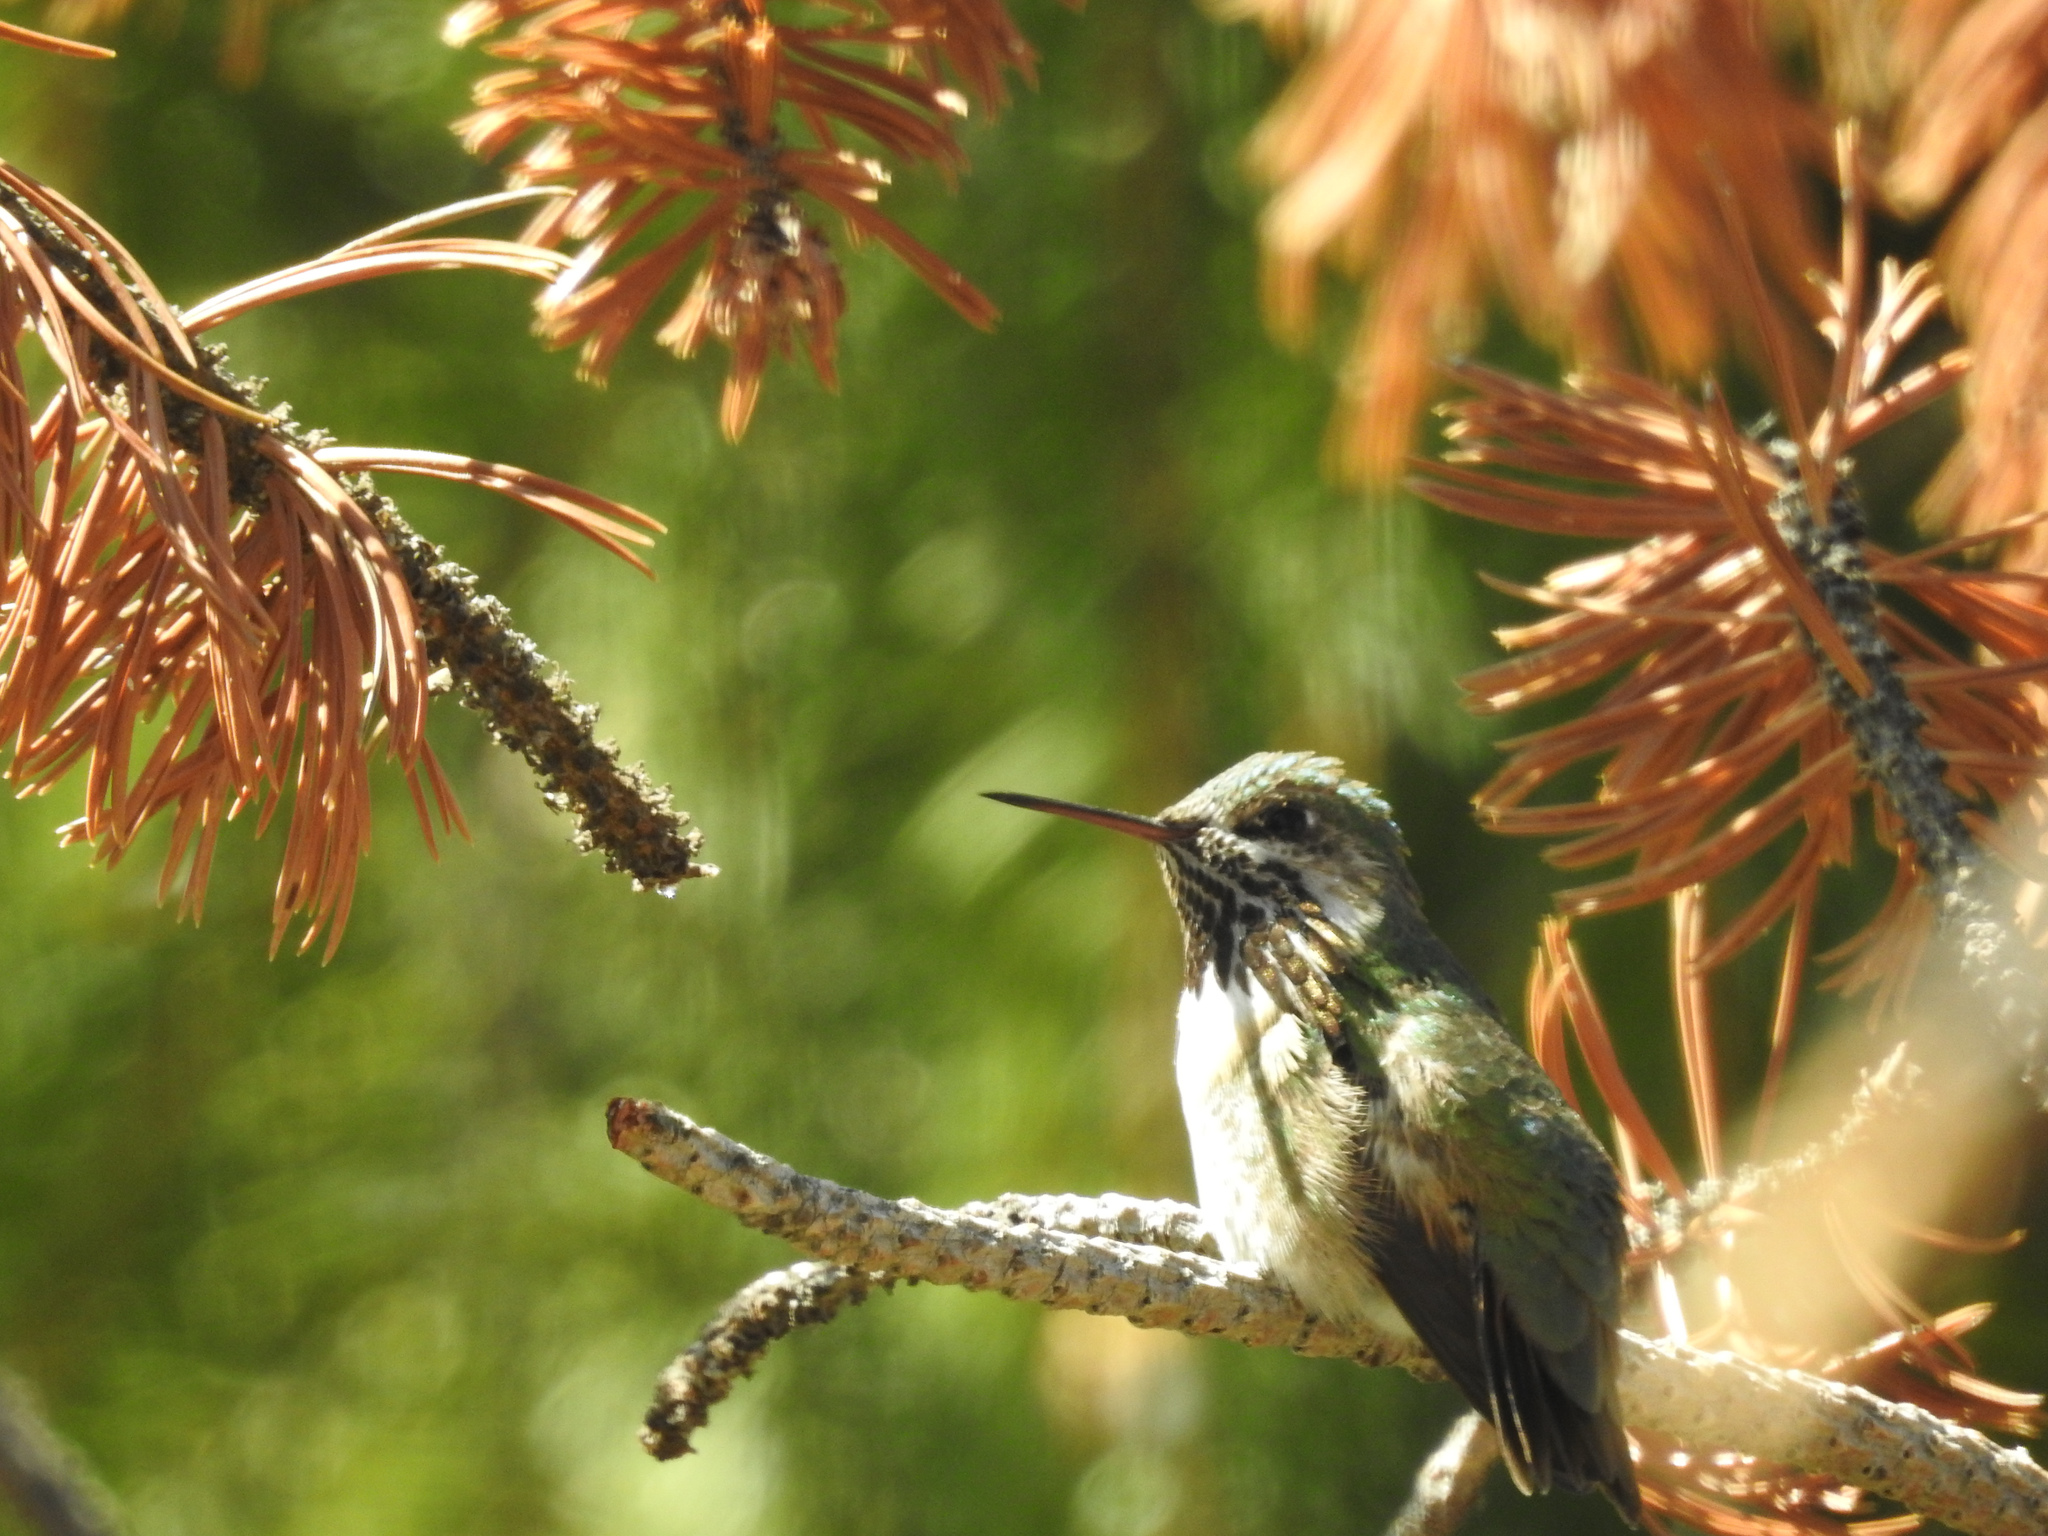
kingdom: Animalia
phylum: Chordata
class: Aves
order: Apodiformes
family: Trochilidae
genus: Selasphorus
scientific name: Selasphorus calliope
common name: Calliope hummingbird
